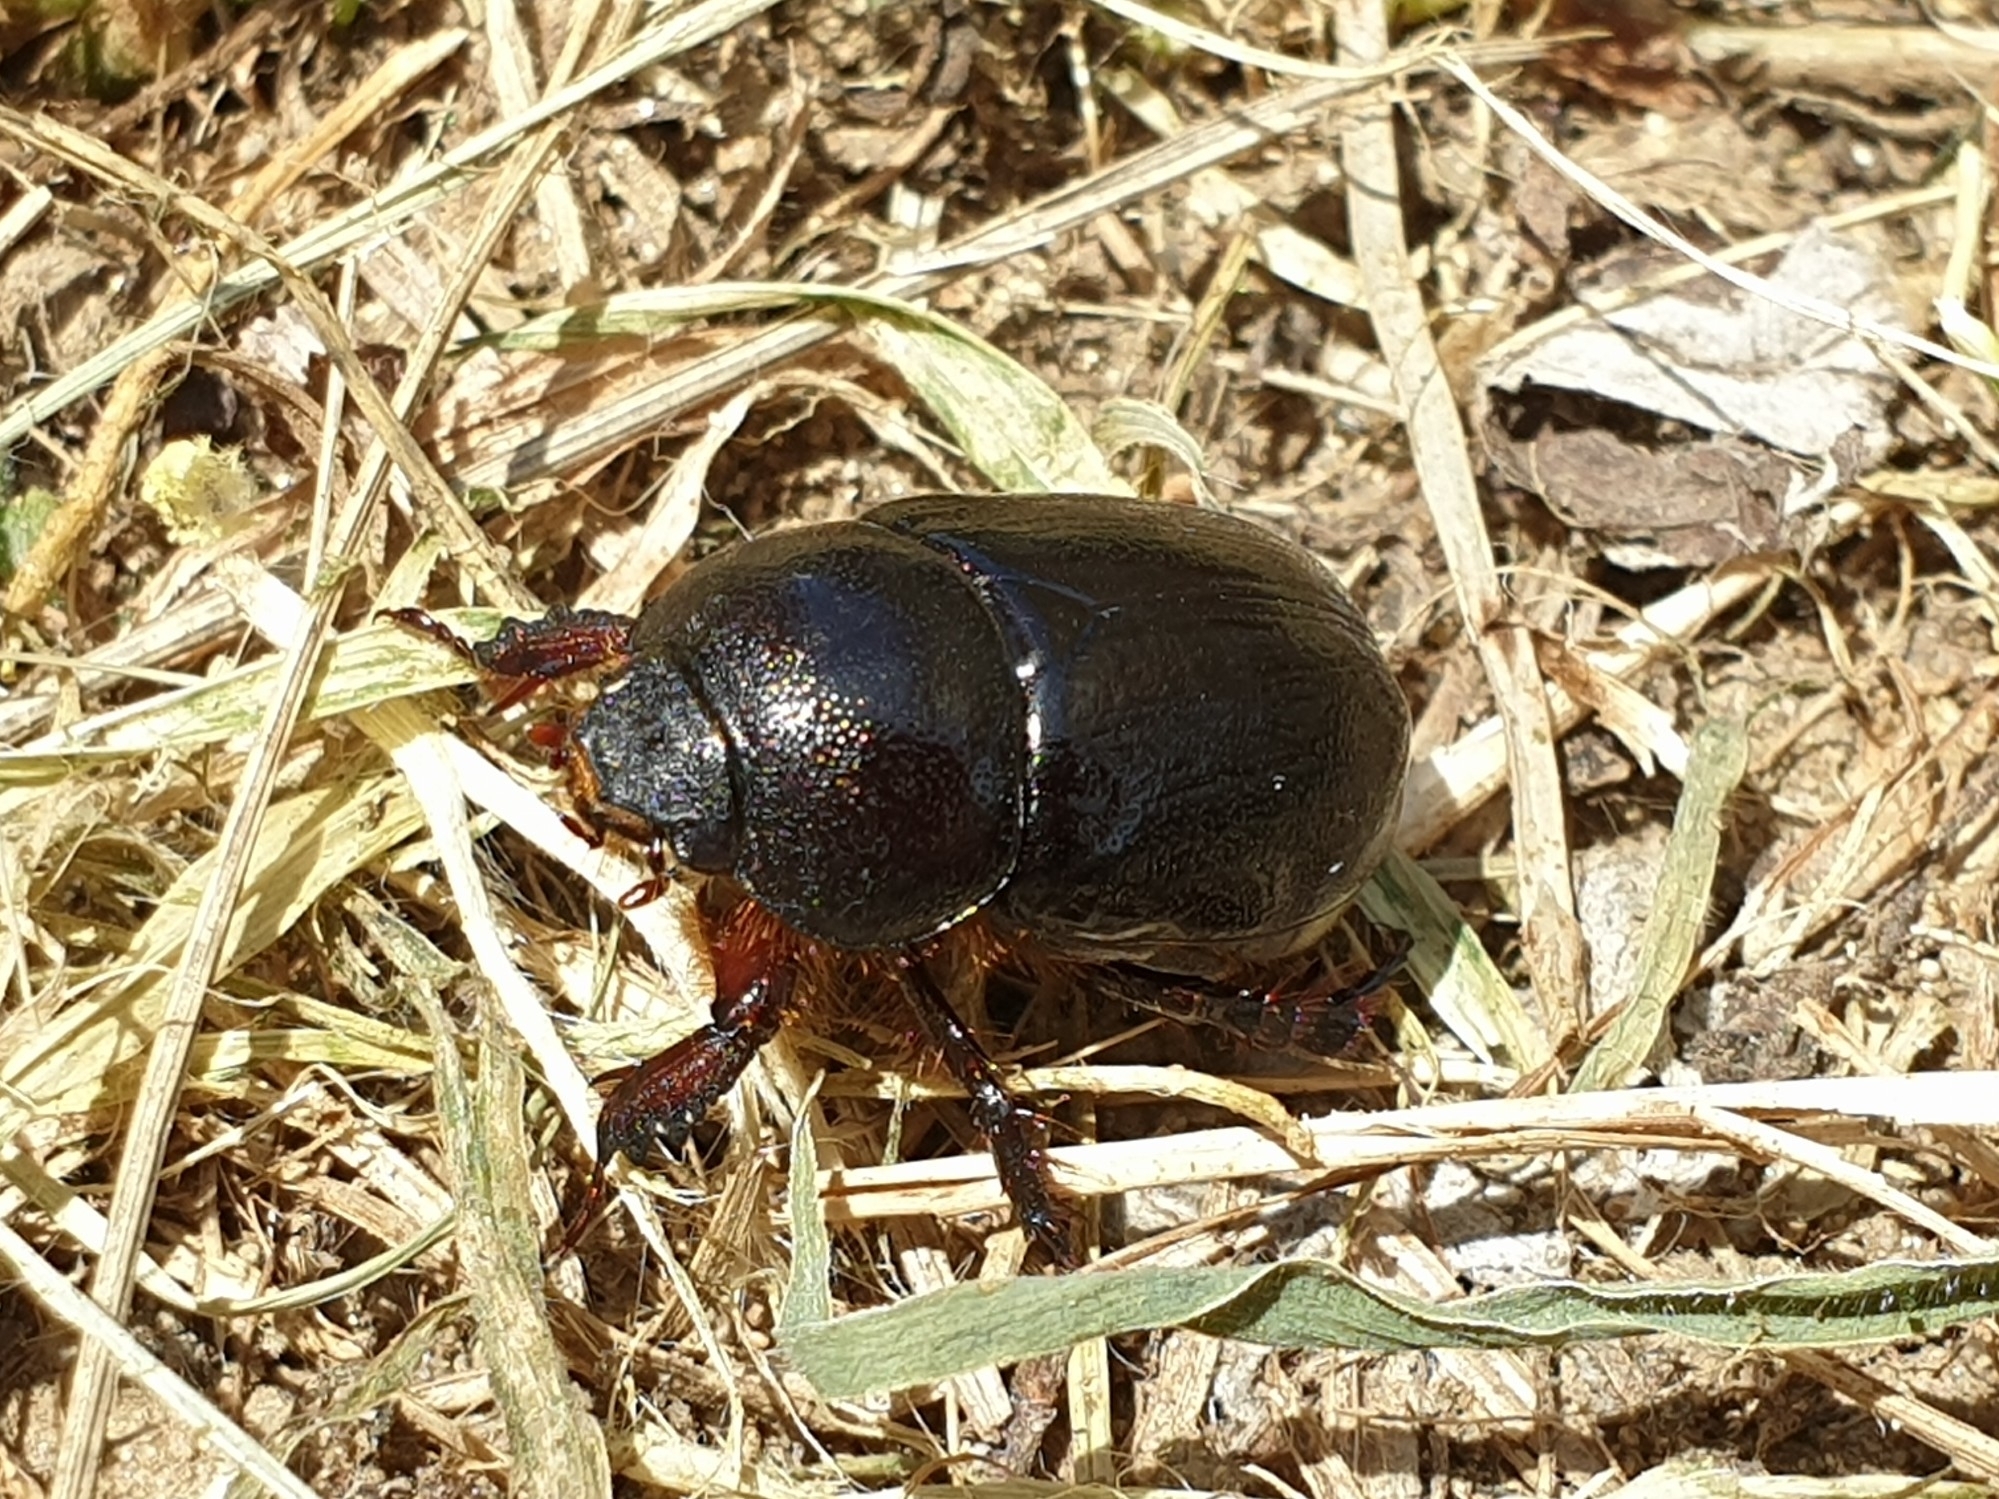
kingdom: Animalia
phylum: Arthropoda
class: Insecta
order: Coleoptera
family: Scarabaeidae
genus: Pentodon
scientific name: Pentodon quadridens
